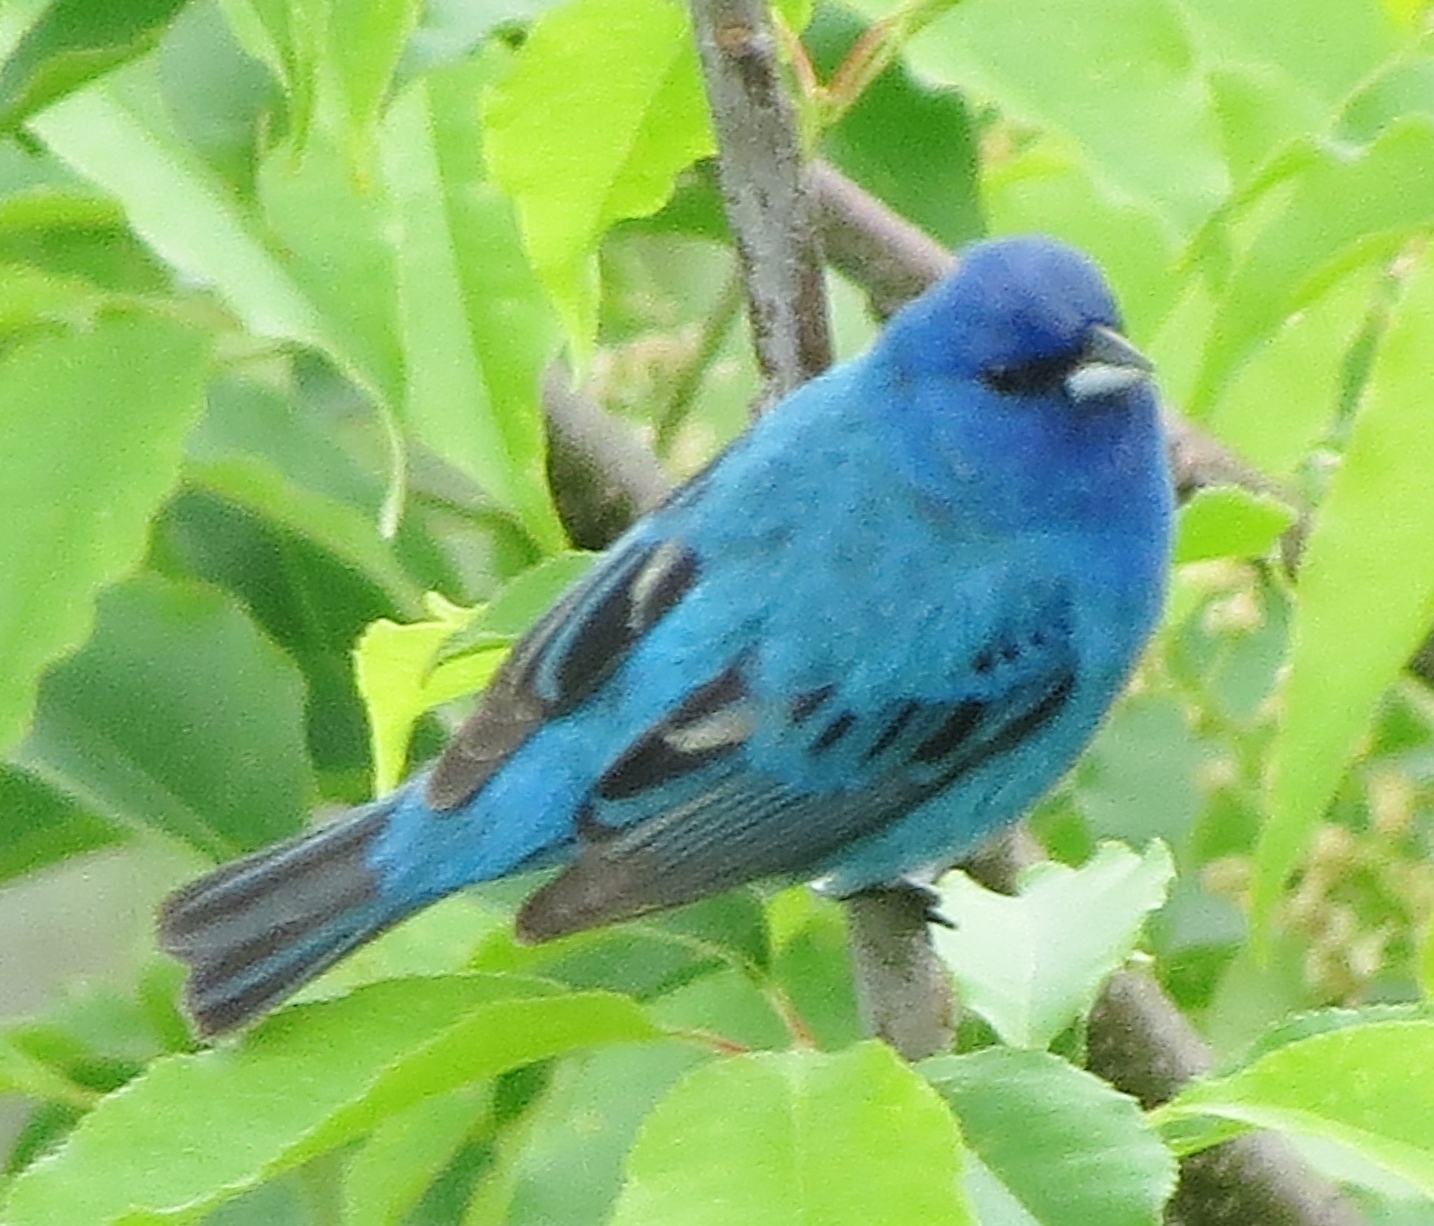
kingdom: Animalia
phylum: Chordata
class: Aves
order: Passeriformes
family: Cardinalidae
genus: Passerina
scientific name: Passerina cyanea
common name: Indigo bunting
